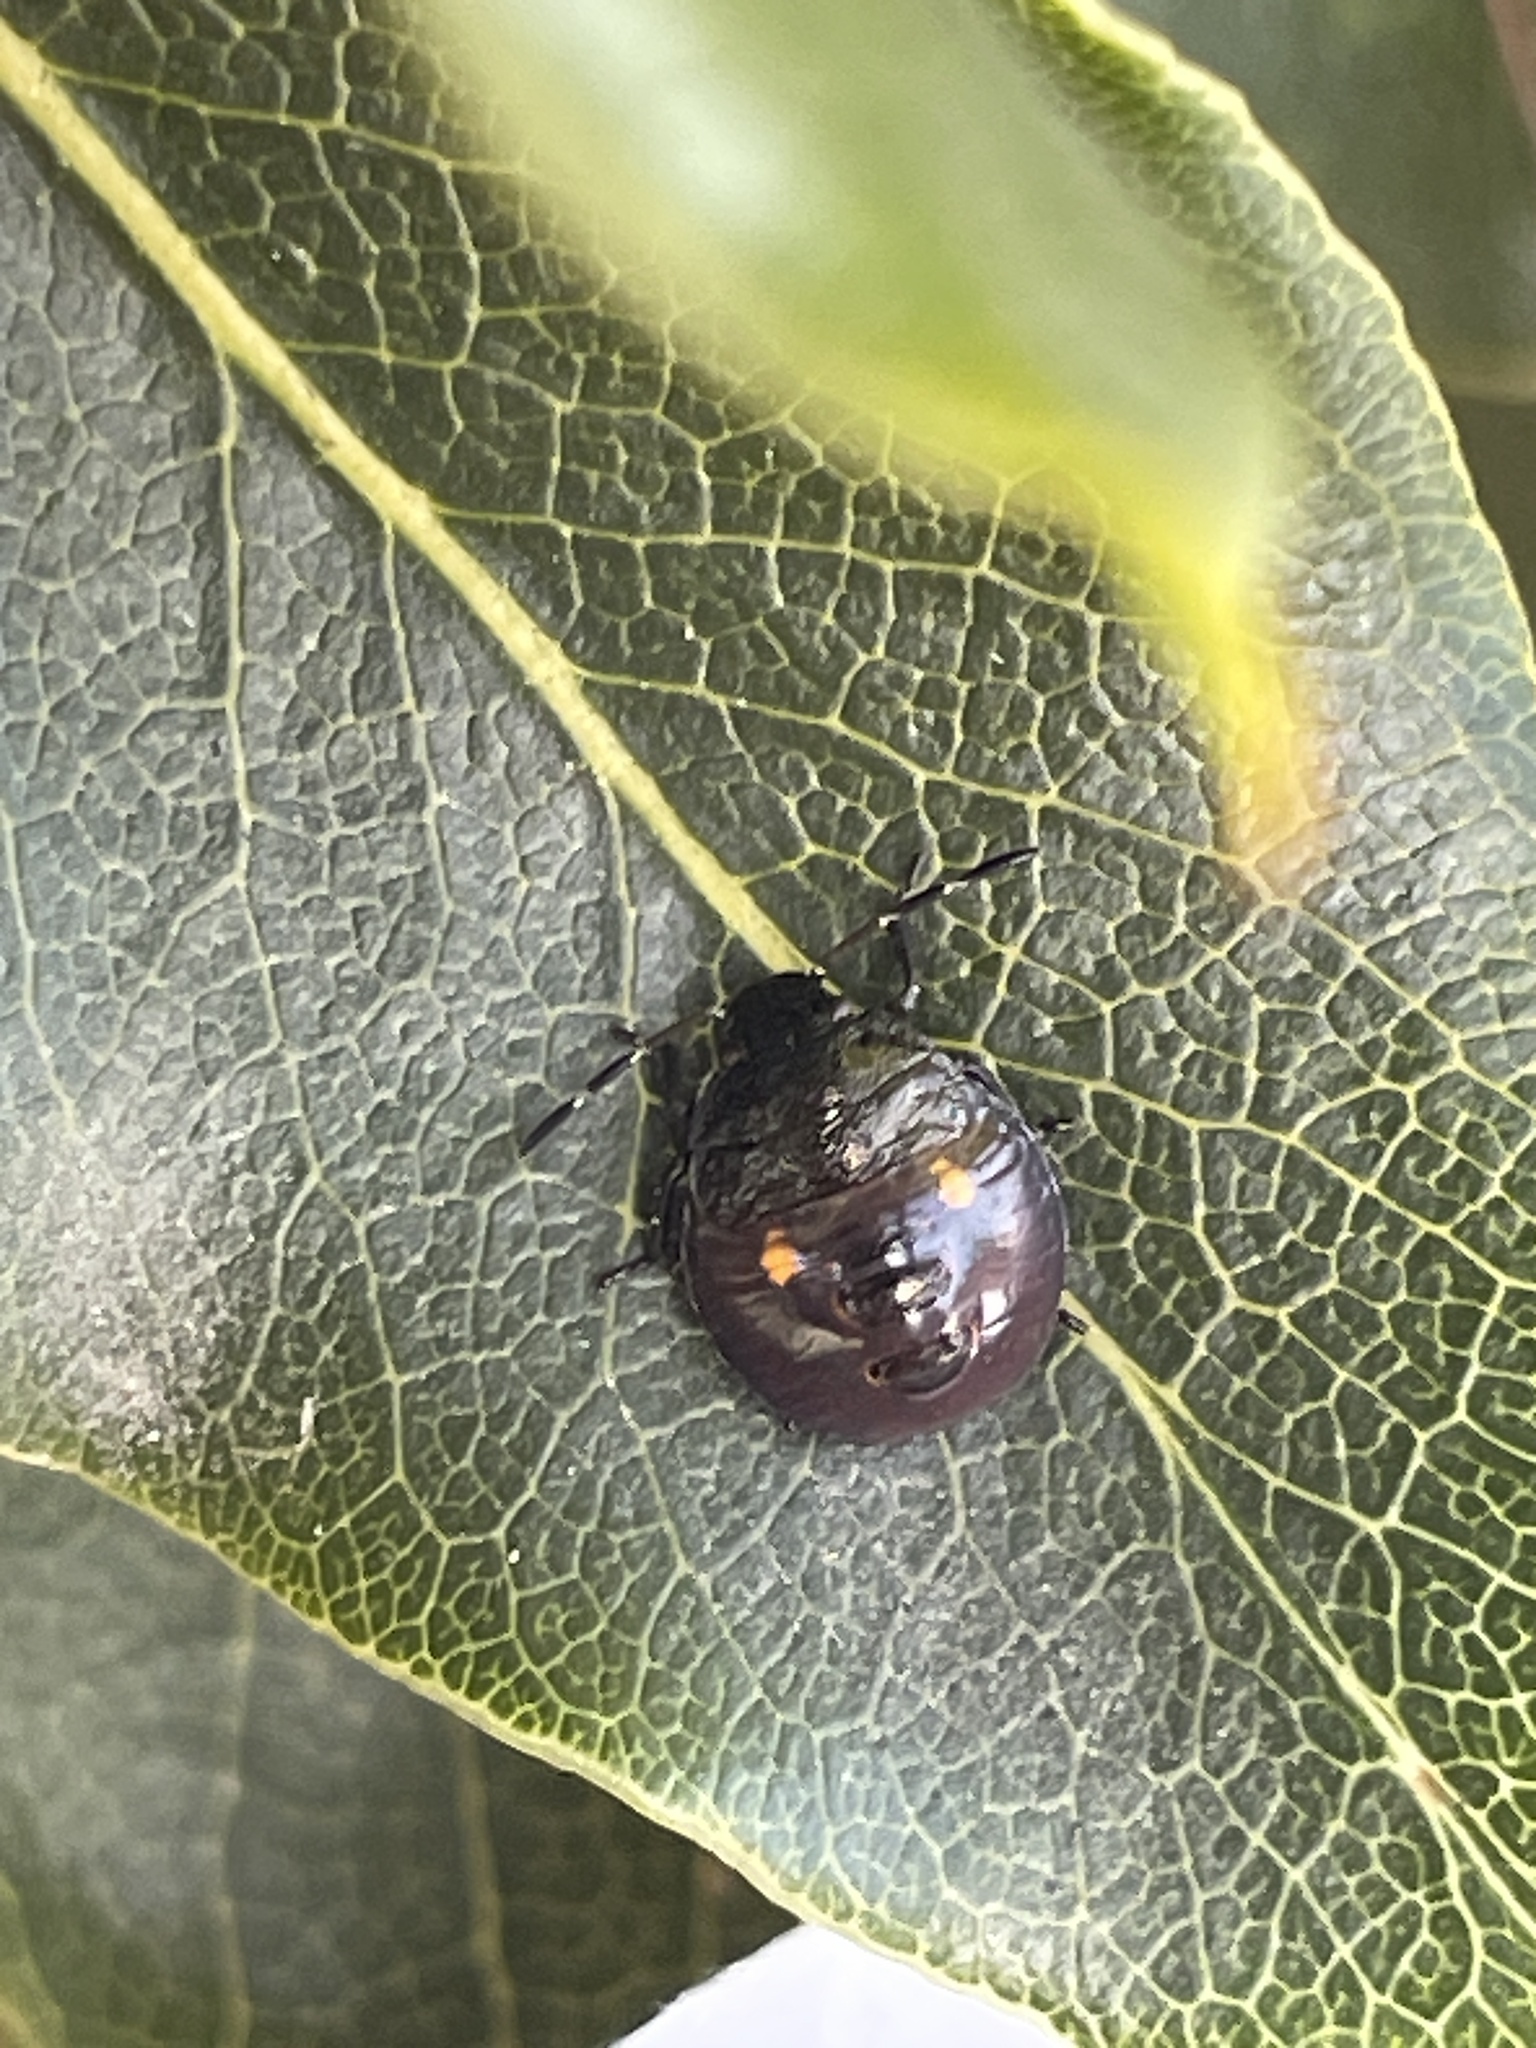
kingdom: Animalia
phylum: Arthropoda
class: Insecta
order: Hemiptera
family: Pentatomidae
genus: Monteithiella
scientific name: Monteithiella
